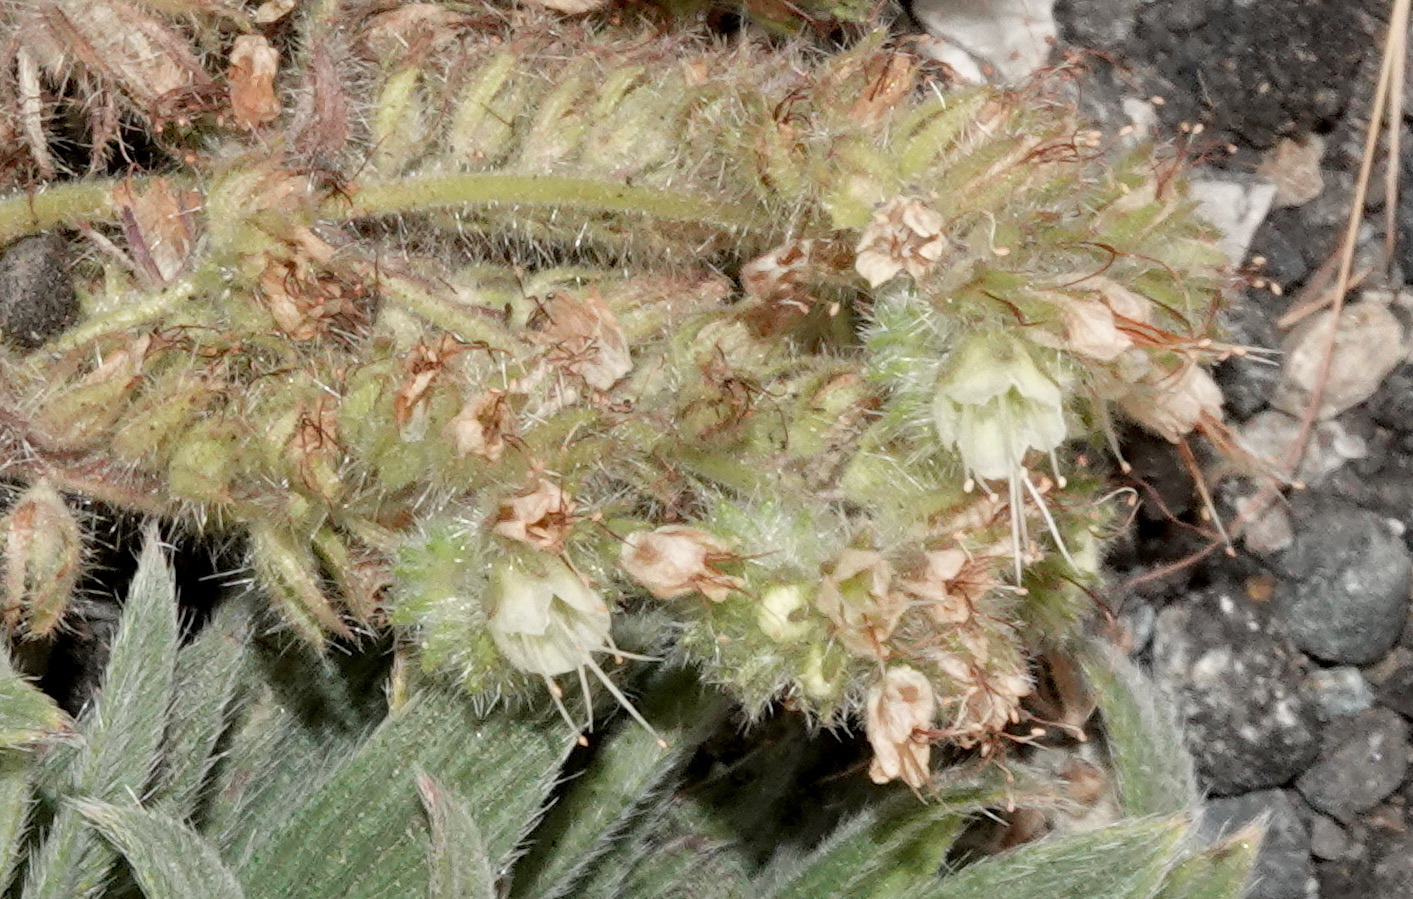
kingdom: Plantae
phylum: Tracheophyta
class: Magnoliopsida
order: Boraginales
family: Hydrophyllaceae
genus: Phacelia
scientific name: Phacelia hastata
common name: Silver-leaved phacelia
